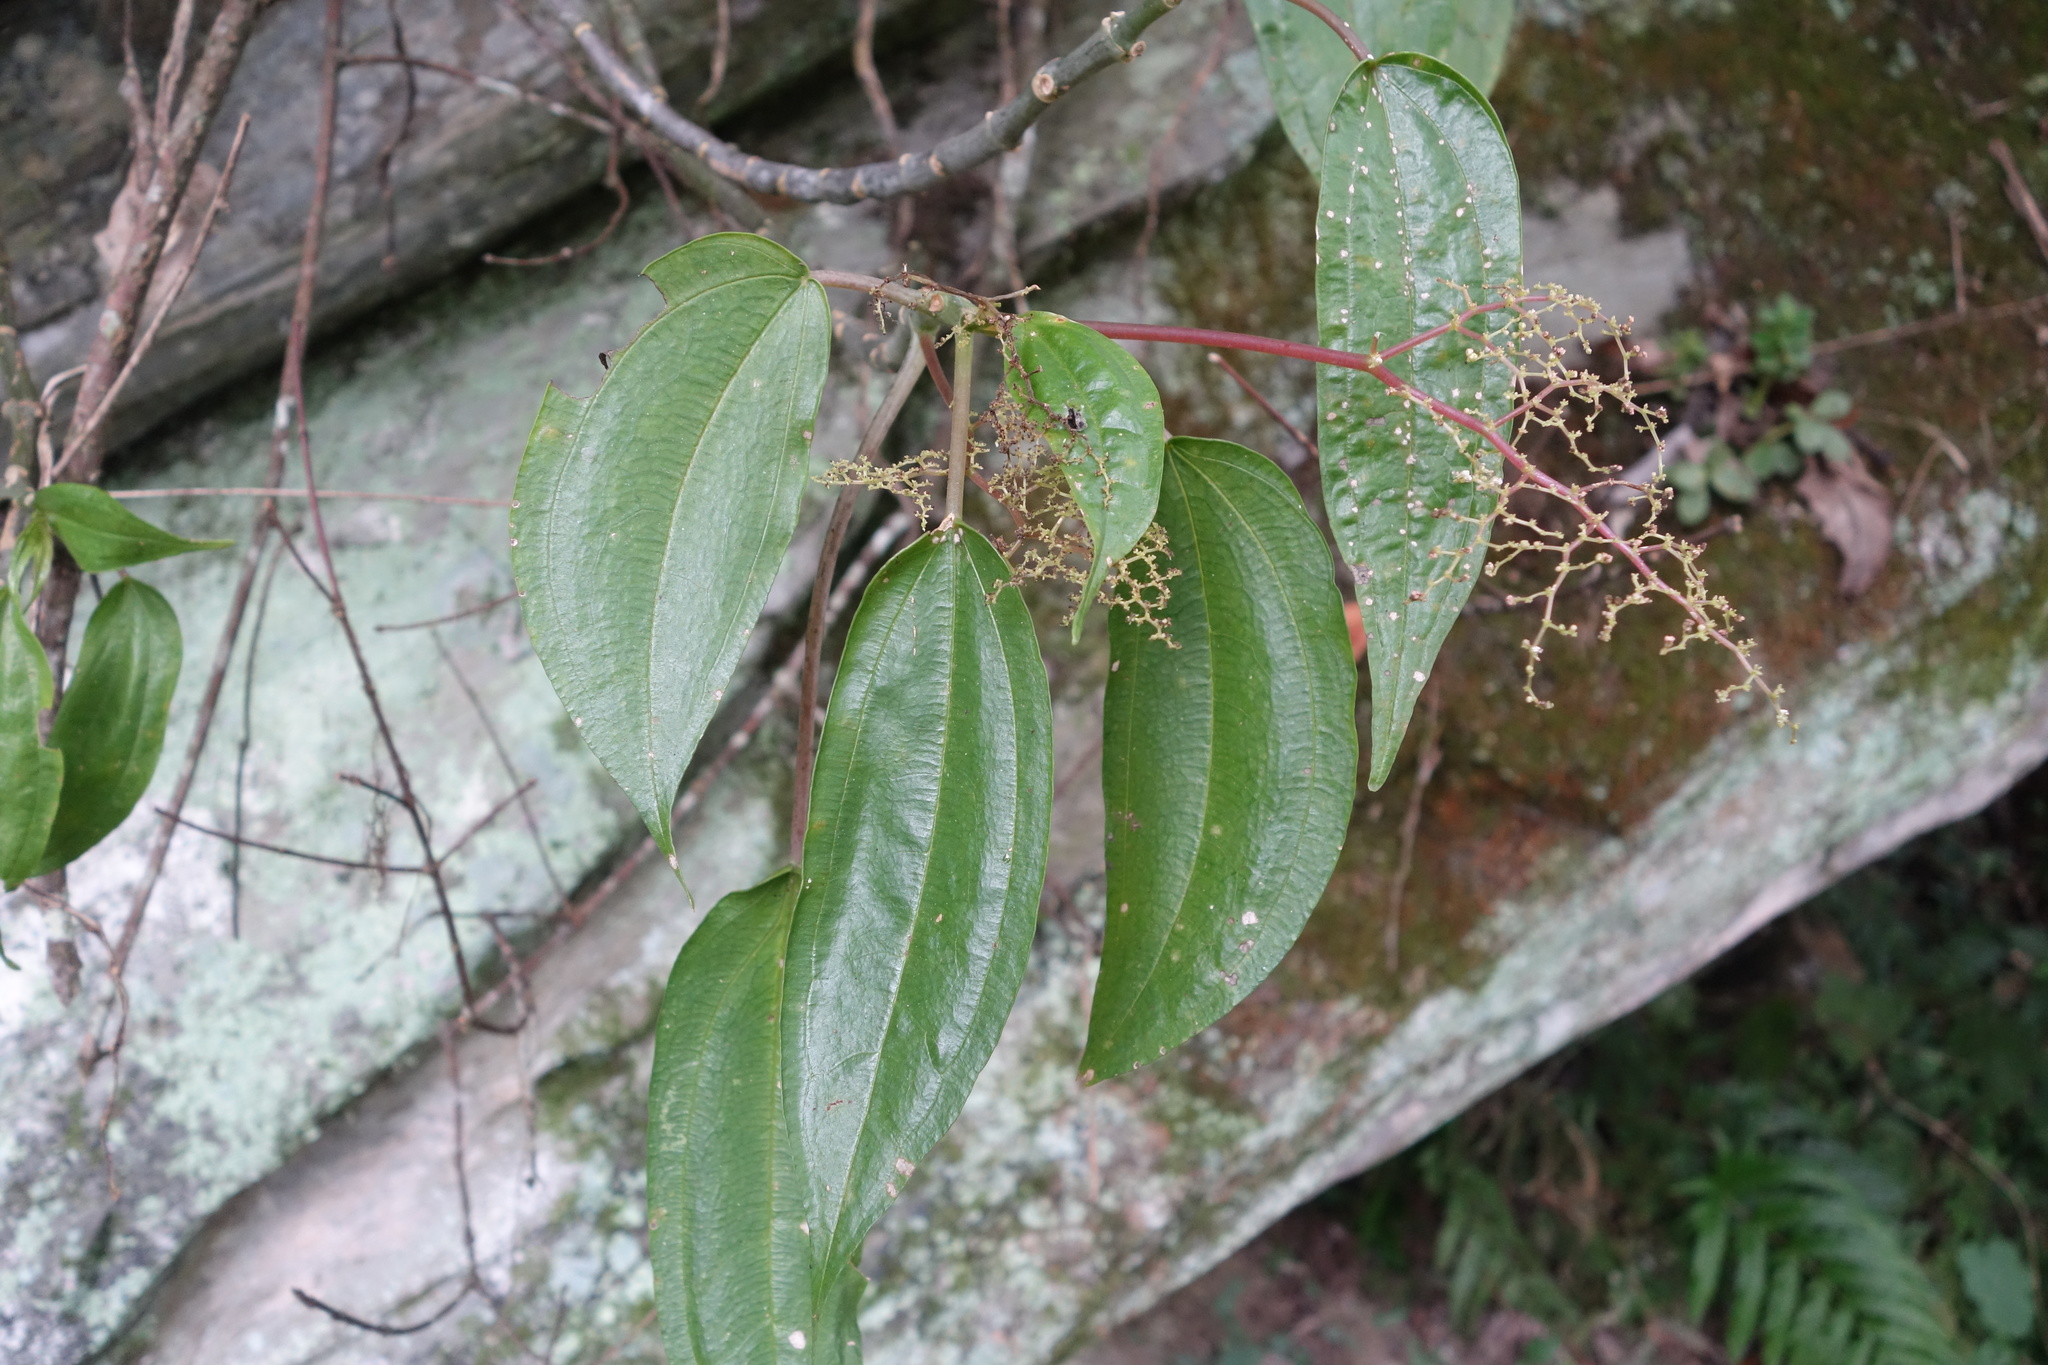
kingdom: Plantae
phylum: Tracheophyta
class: Magnoliopsida
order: Rosales
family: Urticaceae
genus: Pilea
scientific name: Pilea plataniflora
